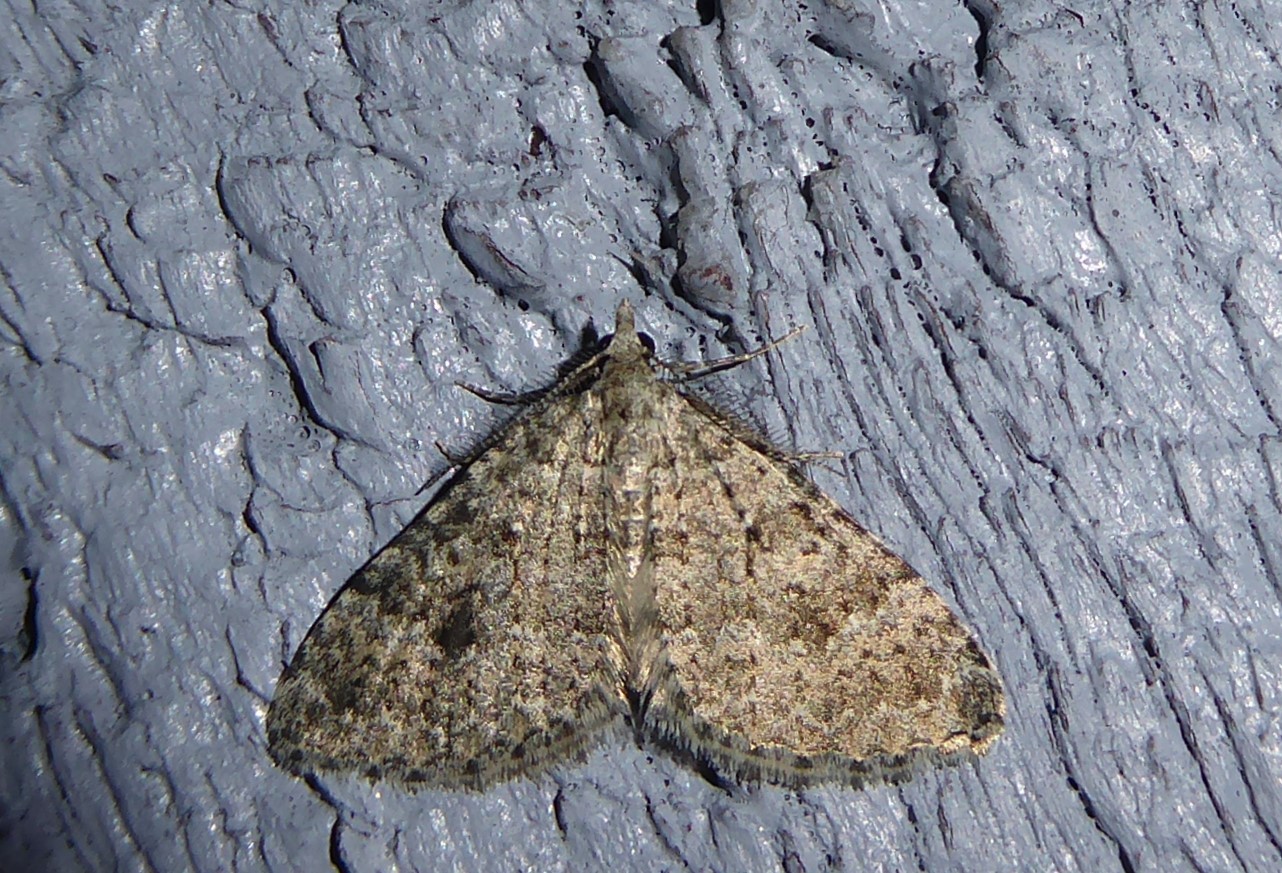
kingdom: Animalia
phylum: Arthropoda
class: Insecta
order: Lepidoptera
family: Geometridae
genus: Helastia
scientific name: Helastia corcularia
